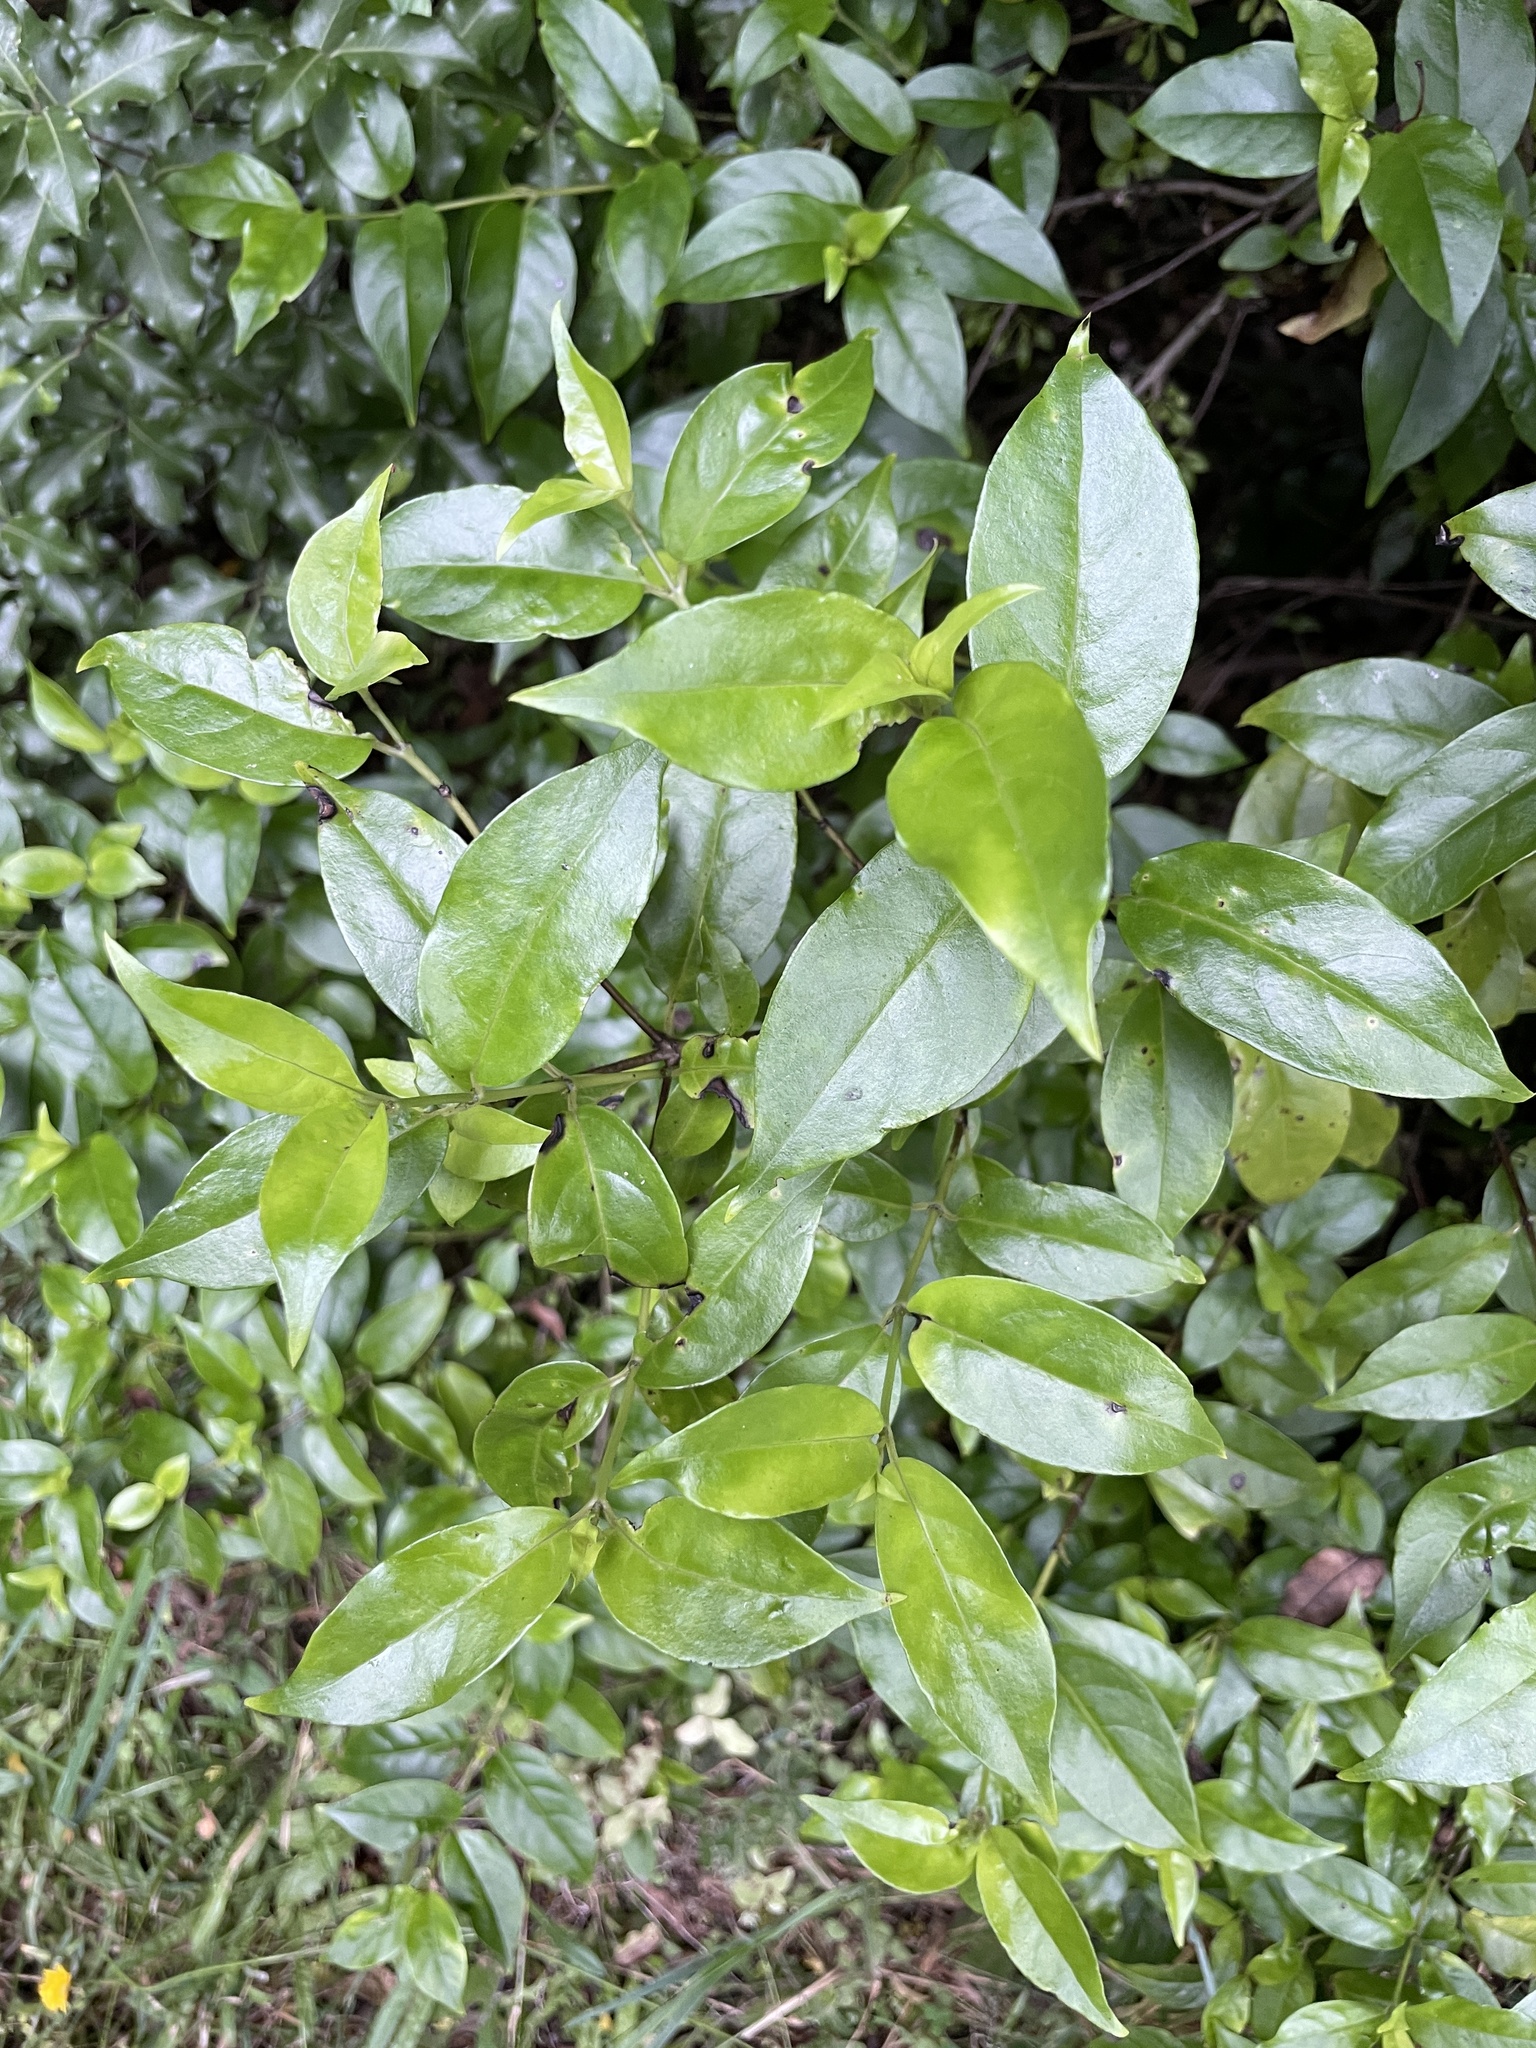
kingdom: Plantae
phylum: Tracheophyta
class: Magnoliopsida
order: Gentianales
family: Loganiaceae
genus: Geniostoma
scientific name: Geniostoma ligustrifolium
